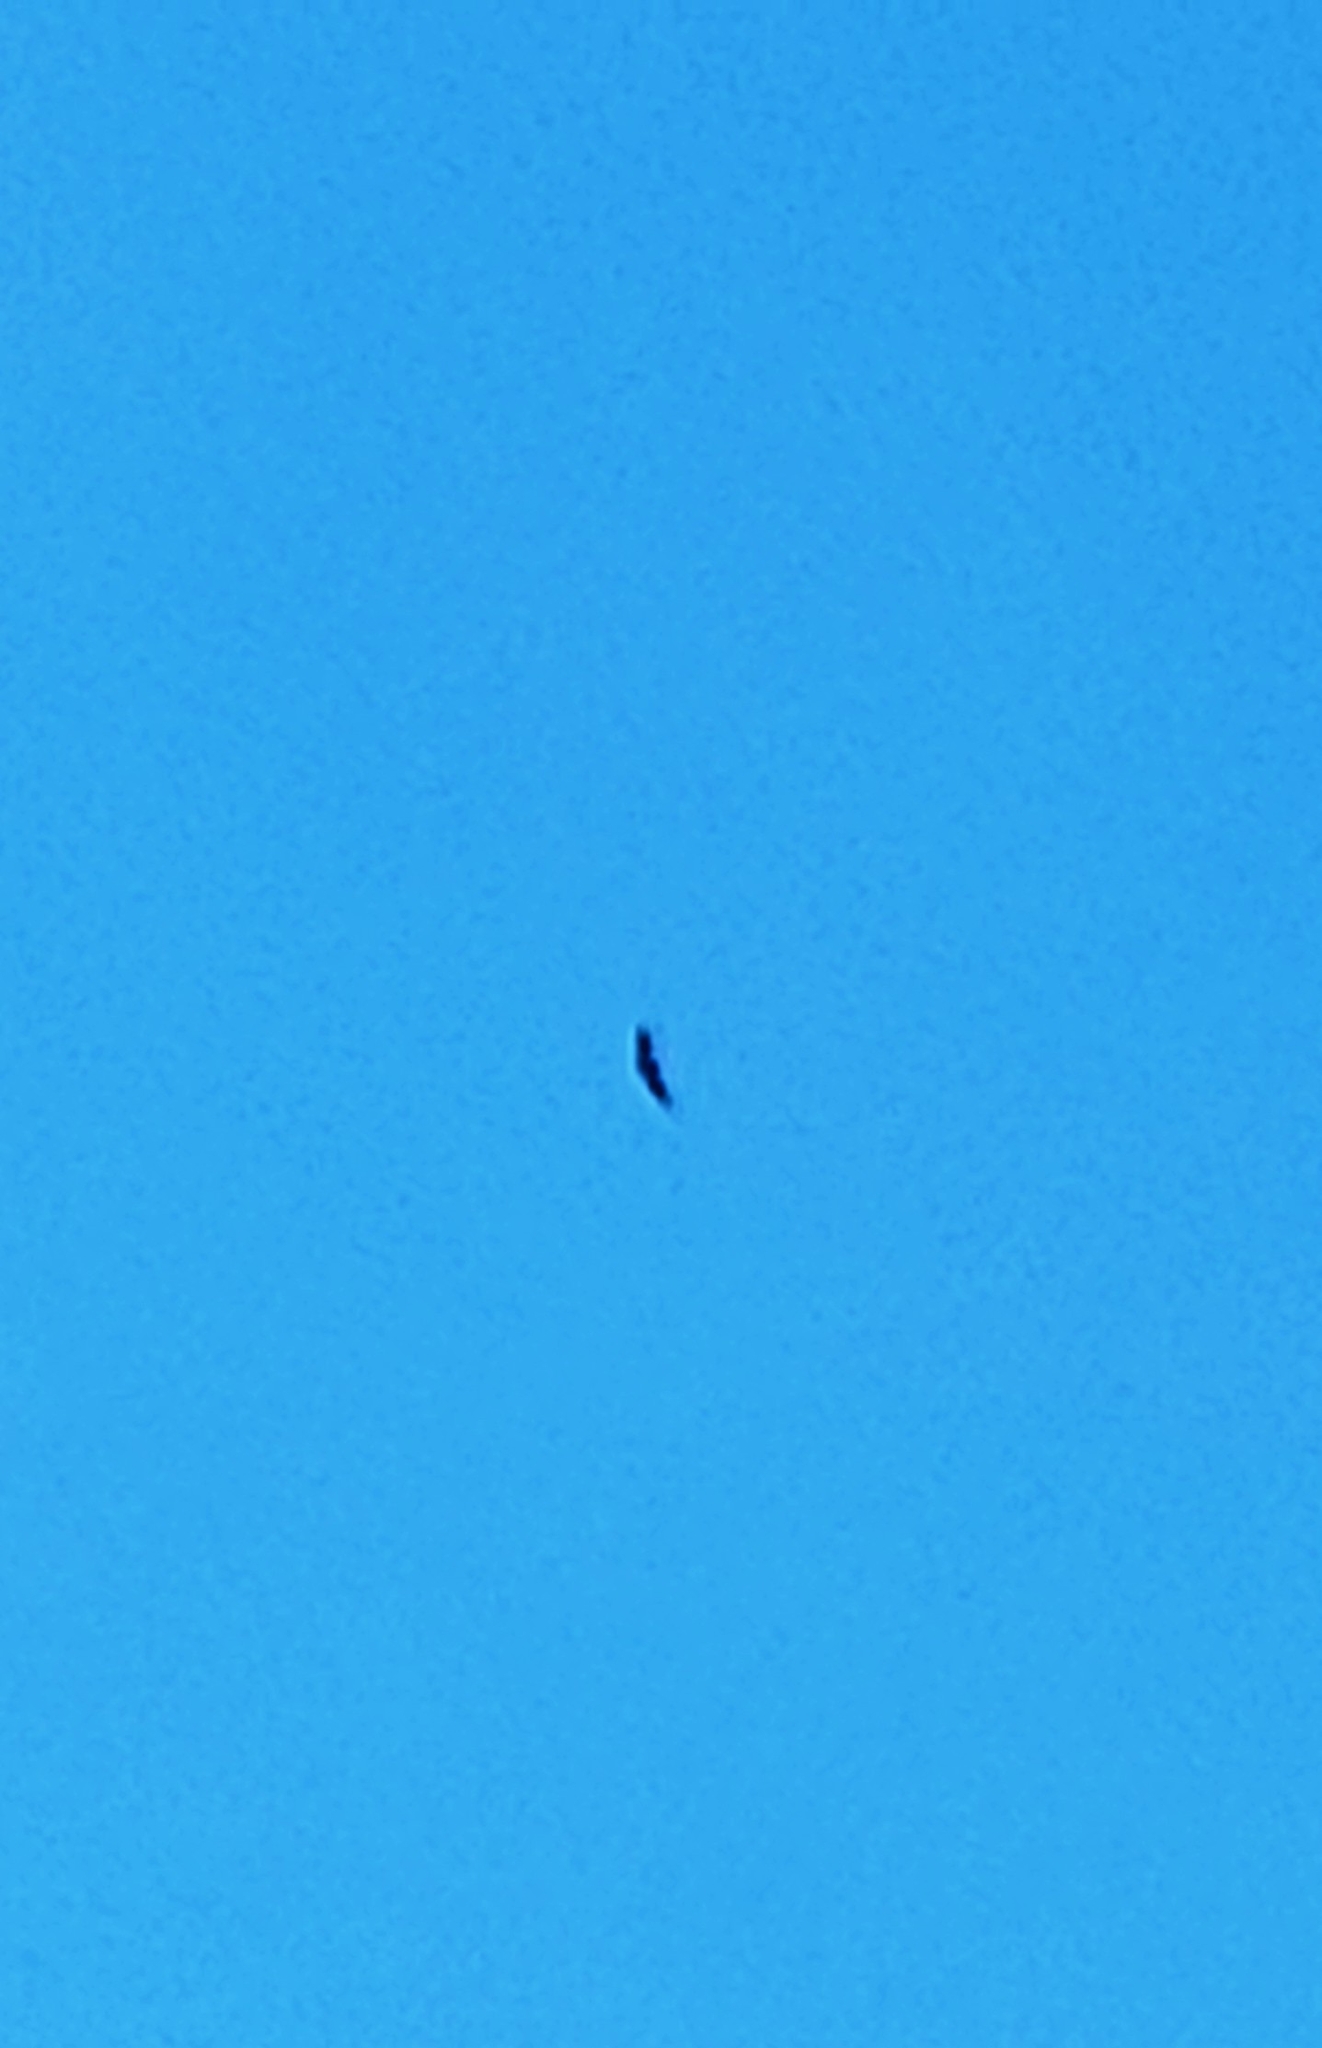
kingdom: Animalia
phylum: Chordata
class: Aves
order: Accipitriformes
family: Cathartidae
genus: Coragyps
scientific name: Coragyps atratus
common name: Black vulture
